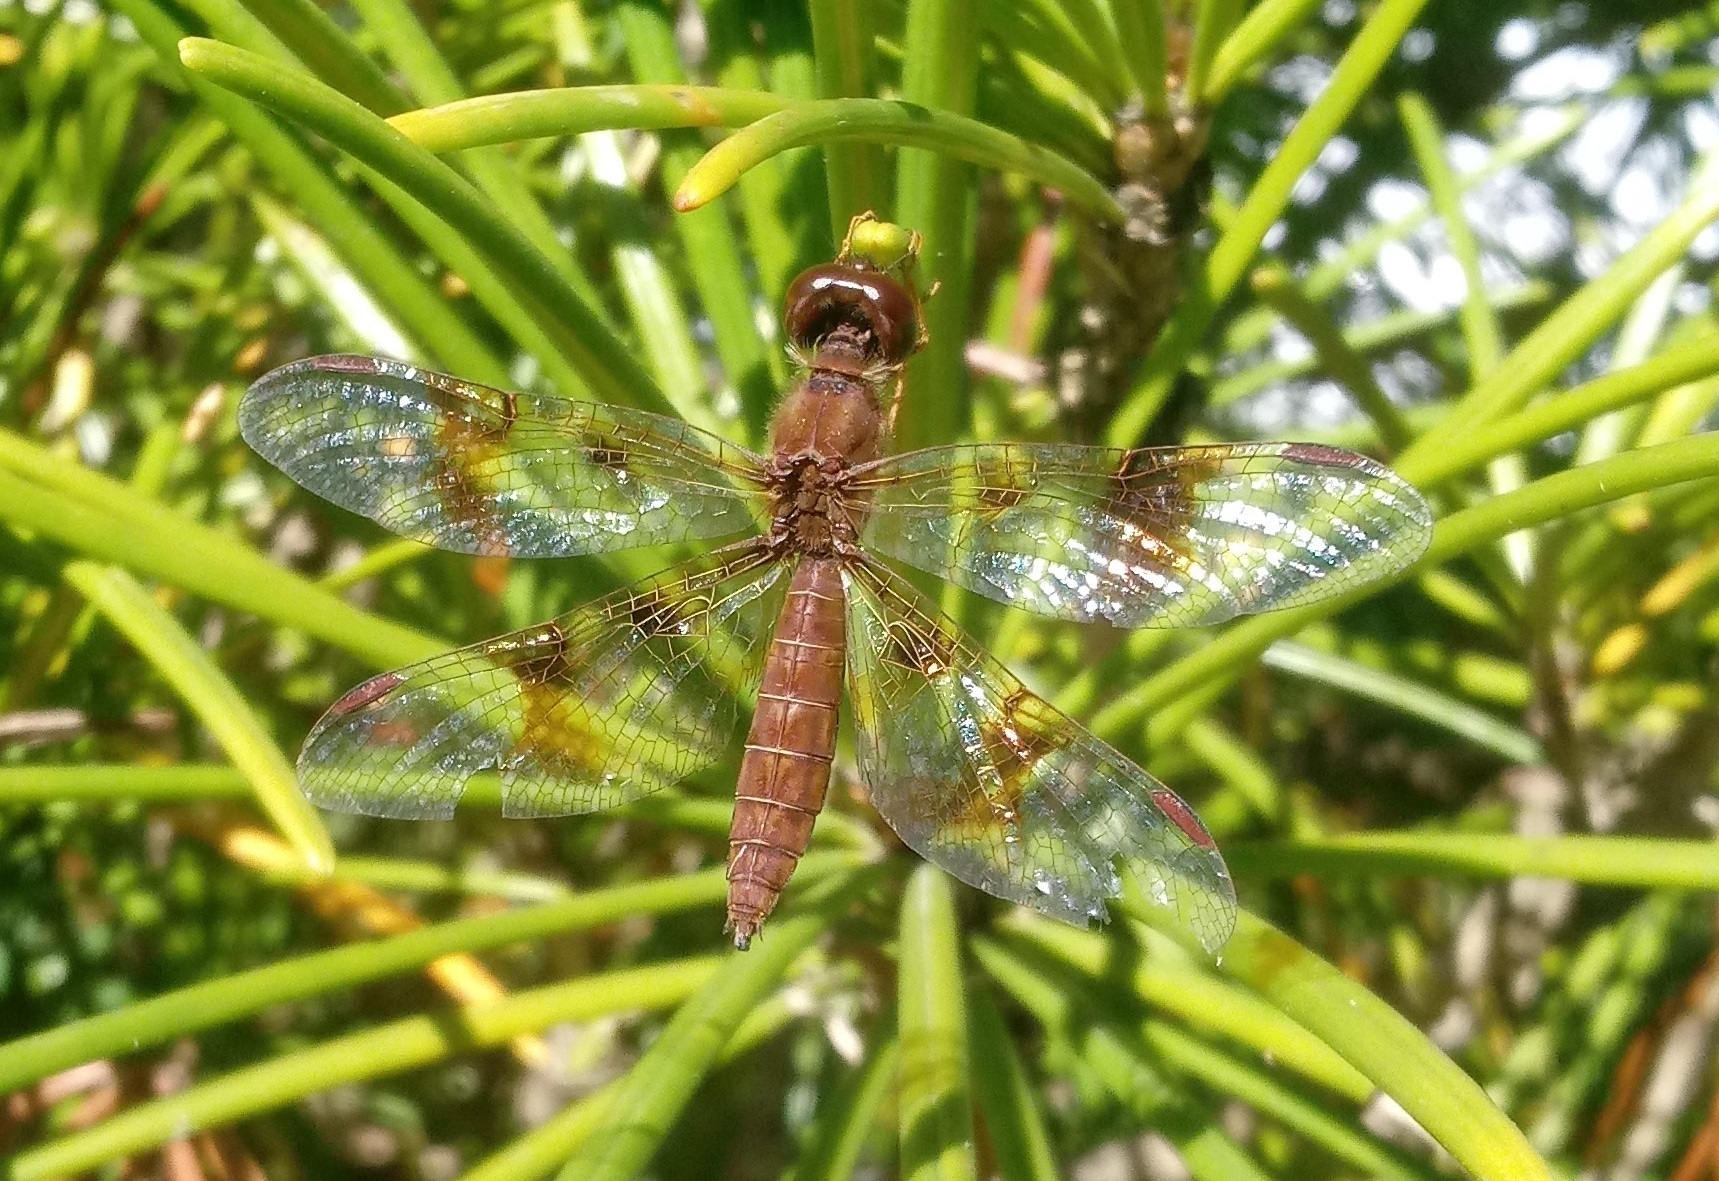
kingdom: Animalia
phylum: Arthropoda
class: Insecta
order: Odonata
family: Libellulidae
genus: Perithemis
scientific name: Perithemis tenera
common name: Eastern amberwing
